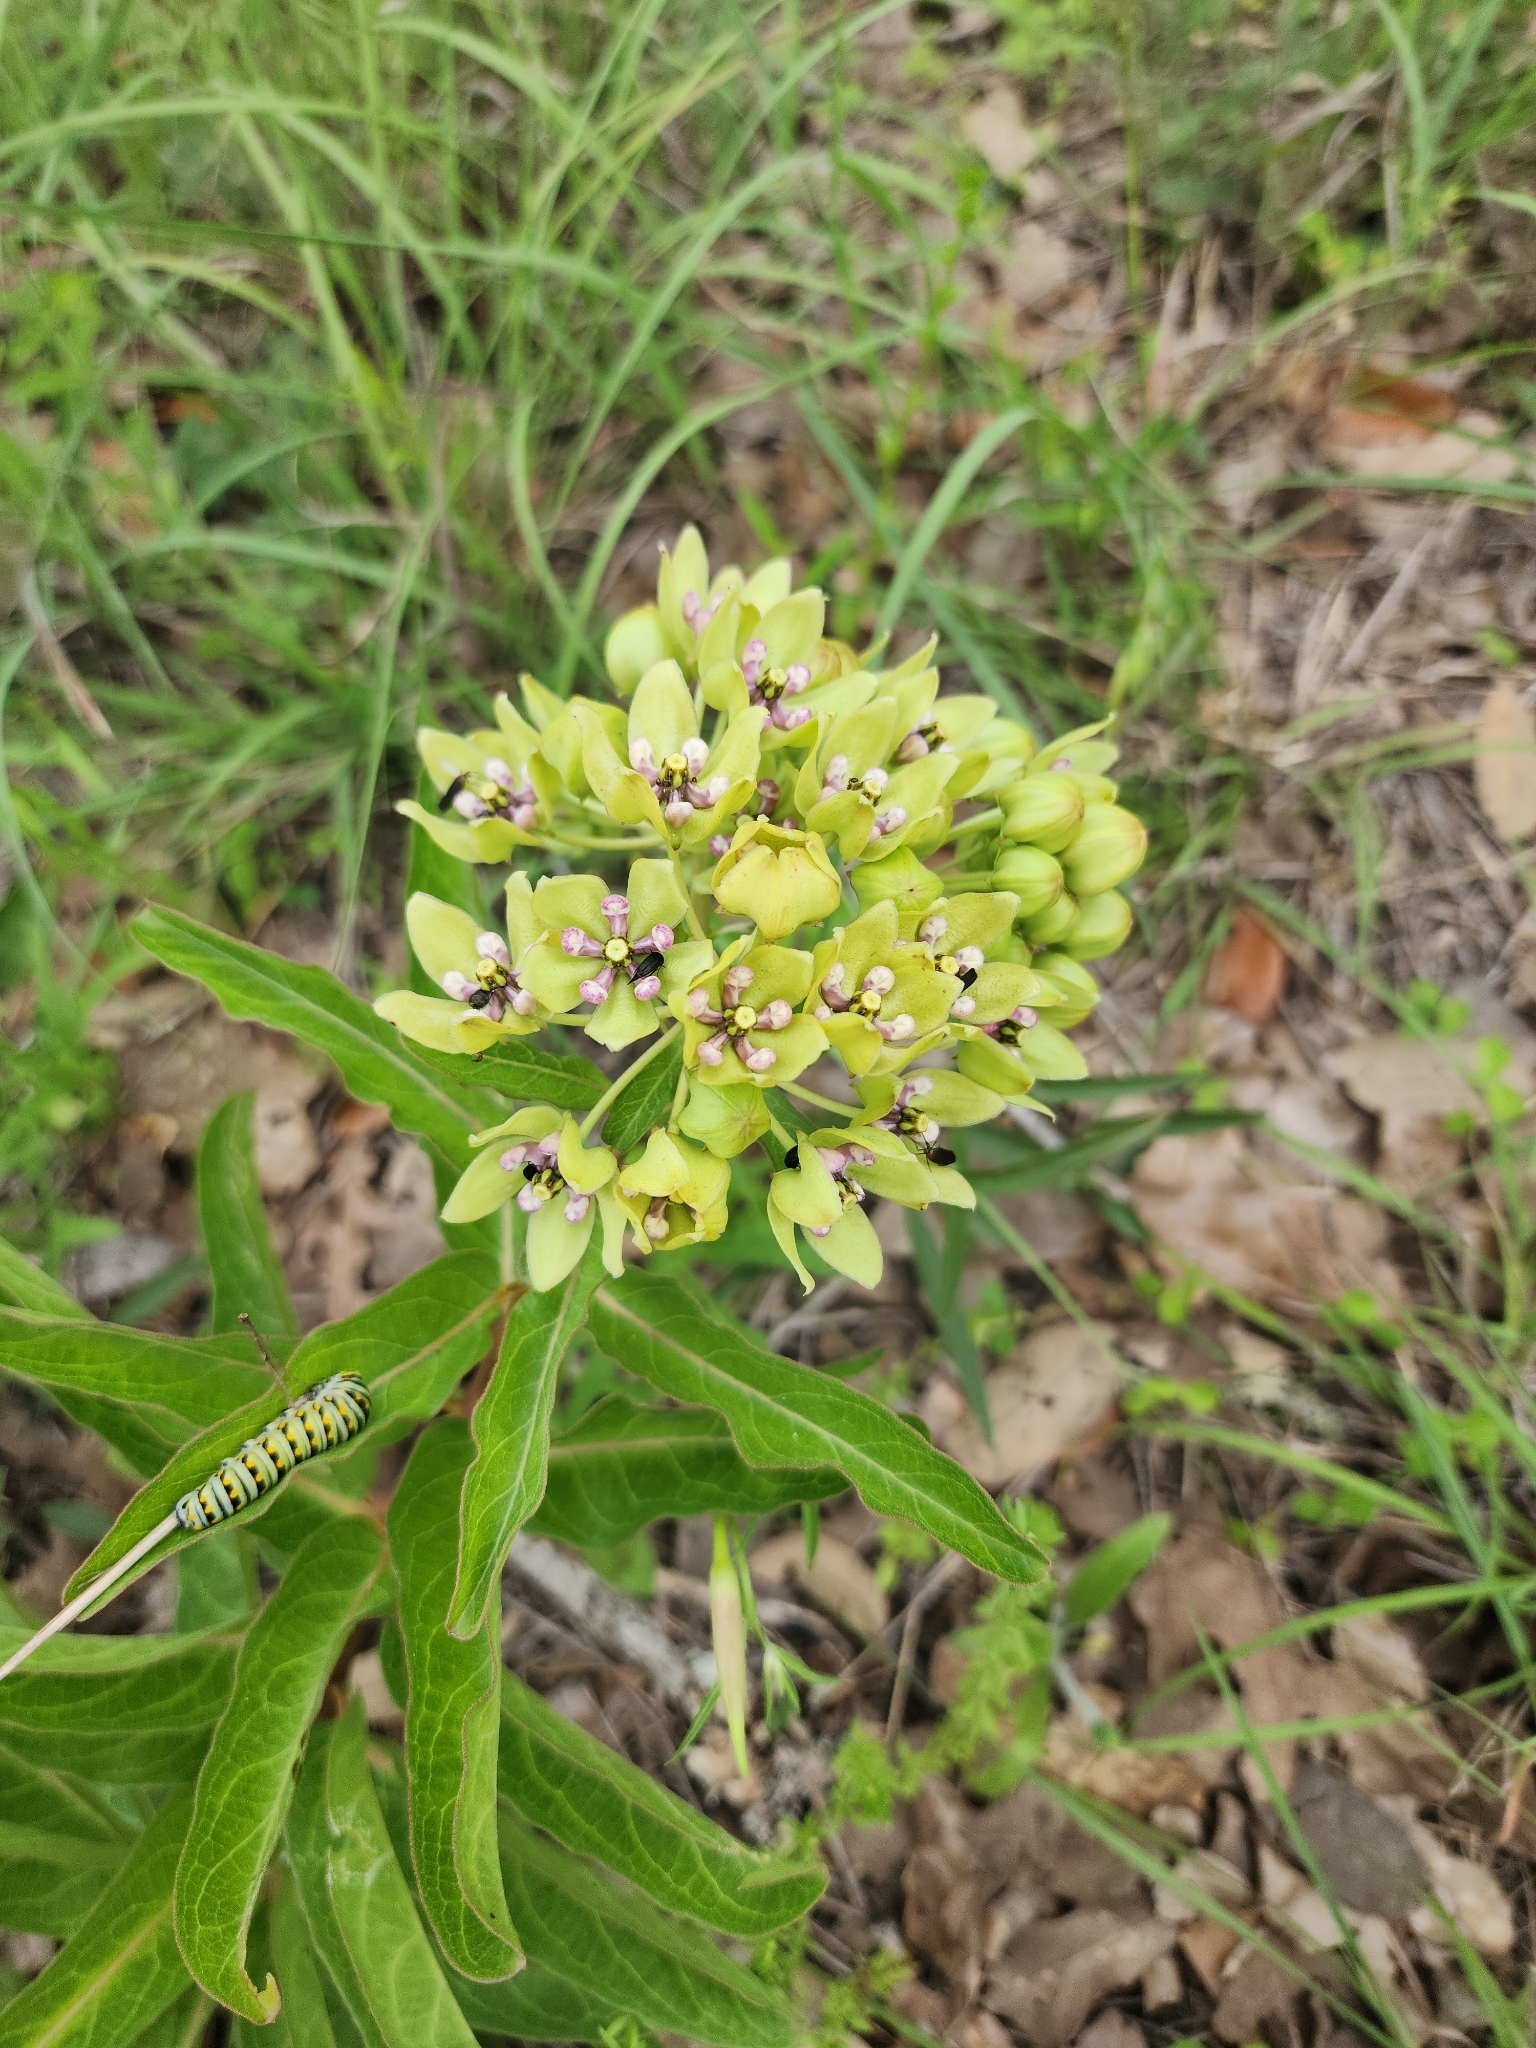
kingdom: Plantae
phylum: Tracheophyta
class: Magnoliopsida
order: Gentianales
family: Apocynaceae
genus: Asclepias
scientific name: Asclepias viridis
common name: Antelope-horns
